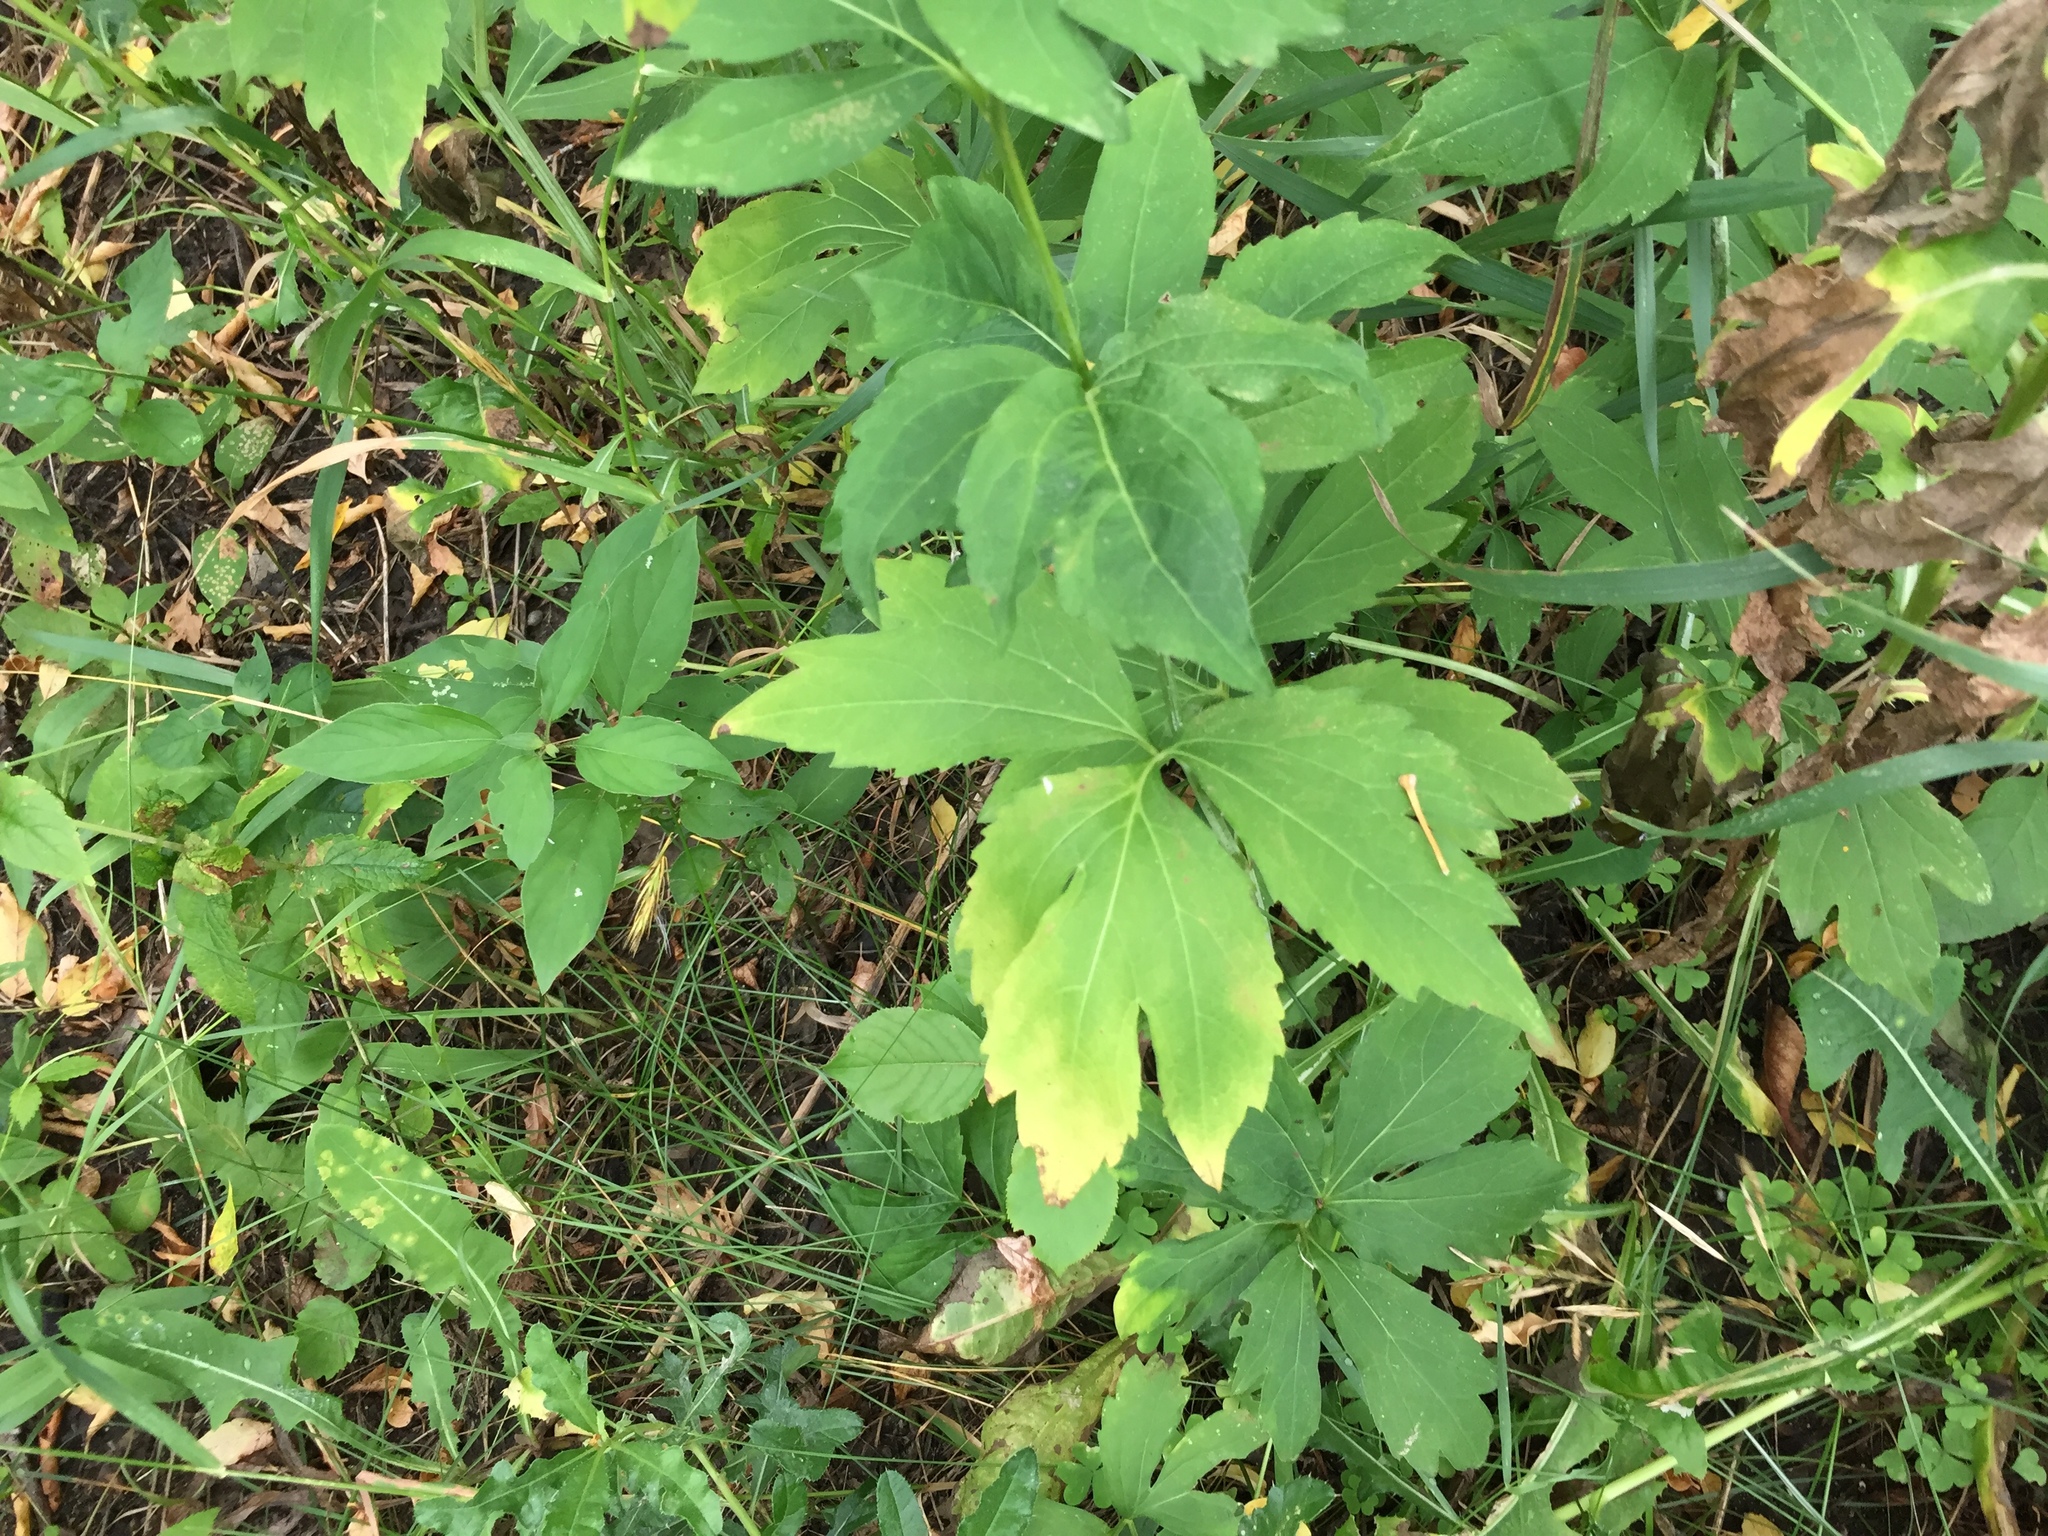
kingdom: Plantae
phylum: Tracheophyta
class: Magnoliopsida
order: Asterales
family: Asteraceae
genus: Rudbeckia
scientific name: Rudbeckia laciniata
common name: Coneflower
